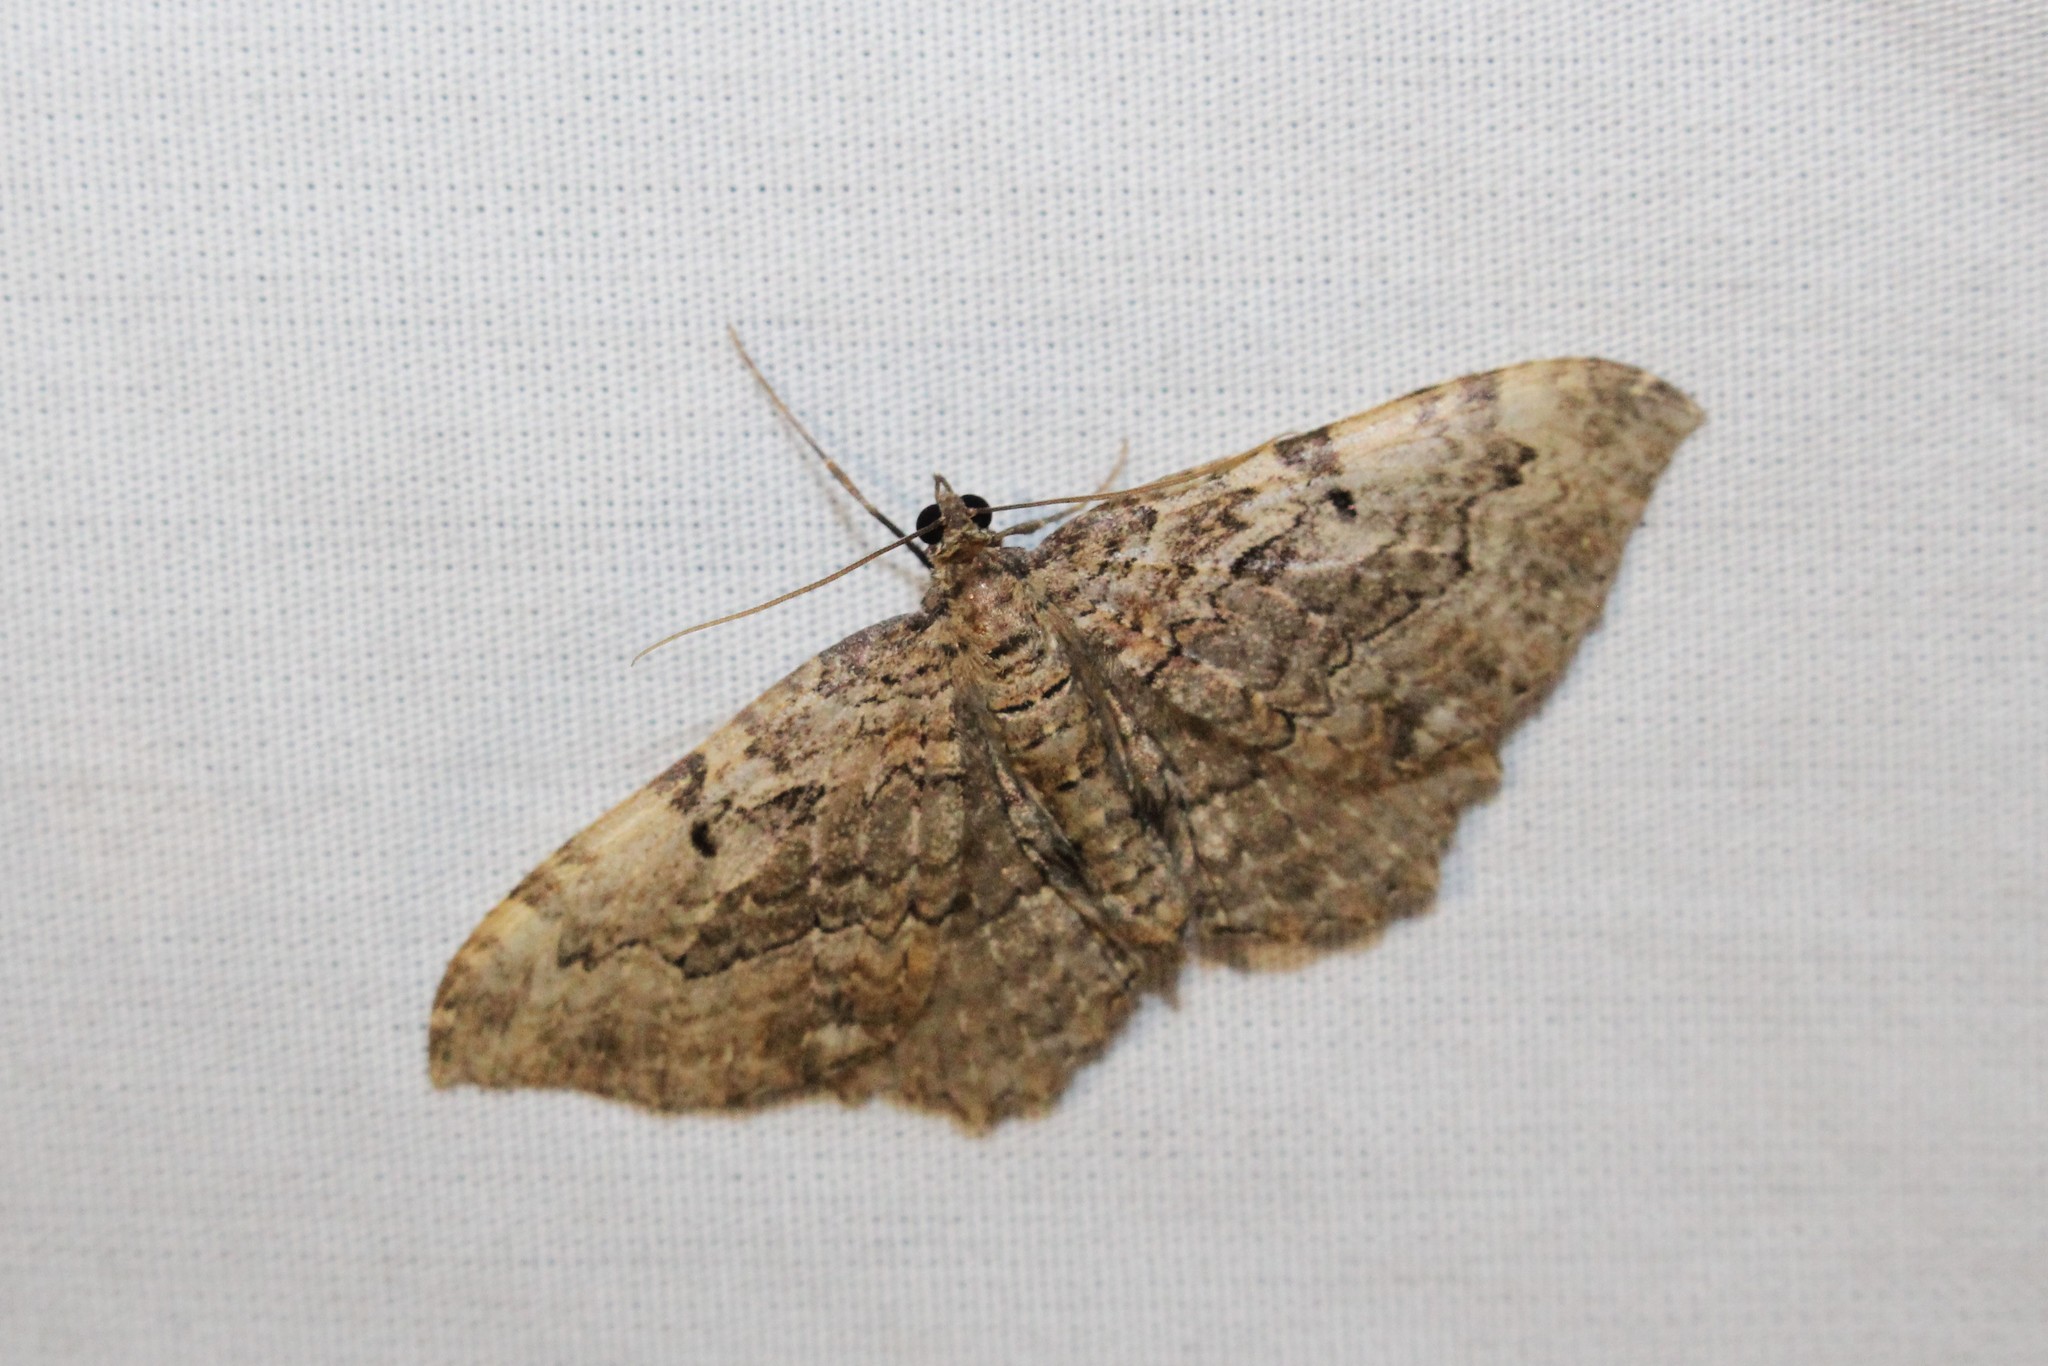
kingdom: Animalia
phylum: Arthropoda
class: Insecta
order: Lepidoptera
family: Geometridae
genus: Rheumaptera
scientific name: Rheumaptera
